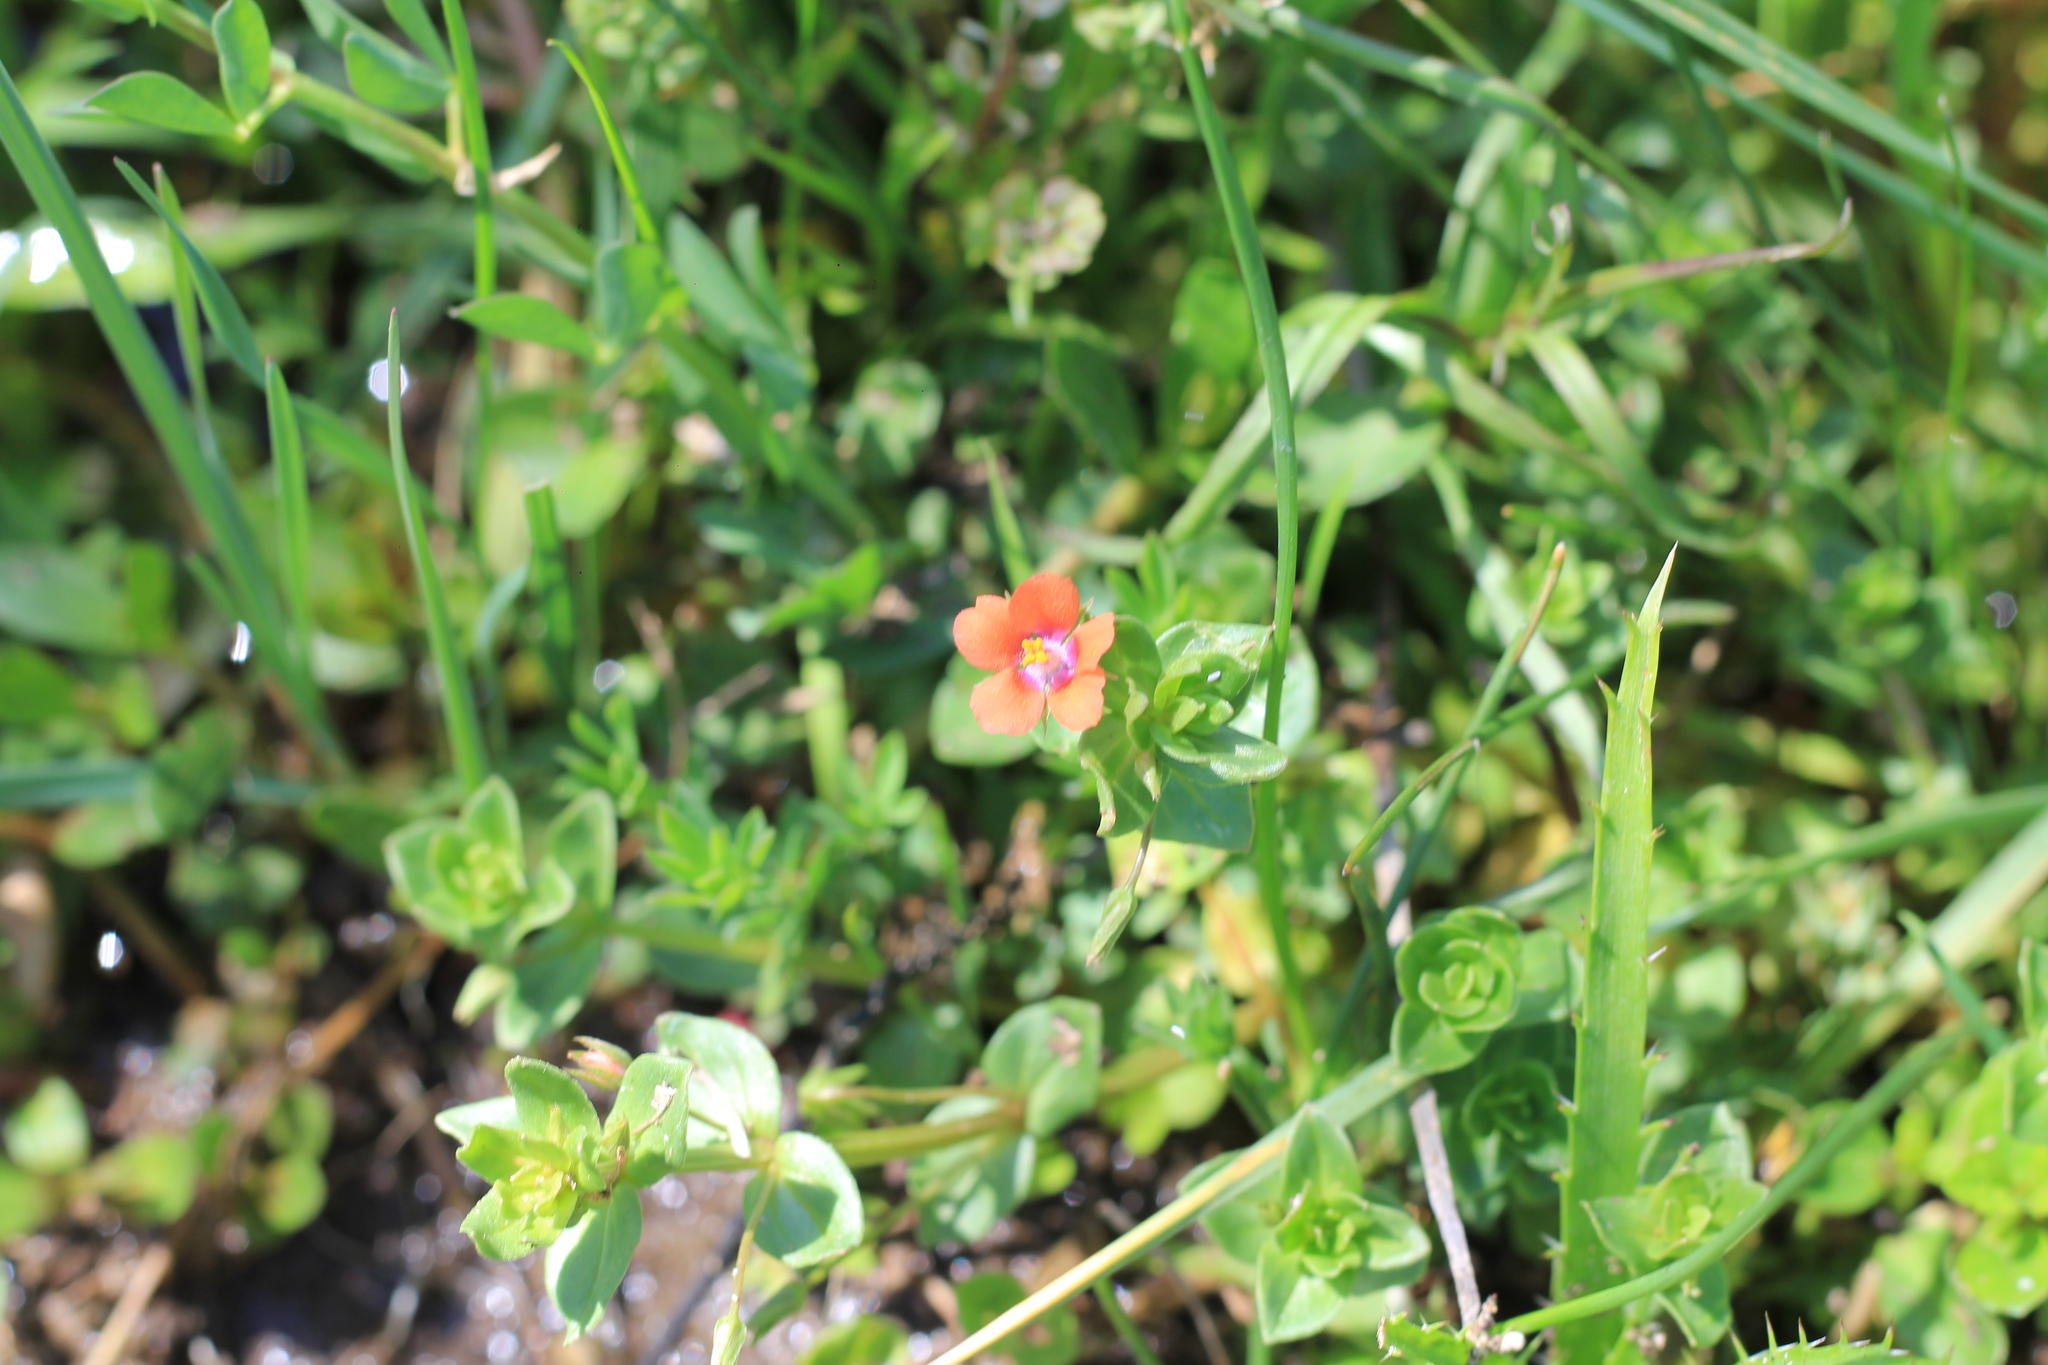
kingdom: Plantae
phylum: Tracheophyta
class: Magnoliopsida
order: Ericales
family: Primulaceae
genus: Lysimachia
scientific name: Lysimachia arvensis
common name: Scarlet pimpernel
